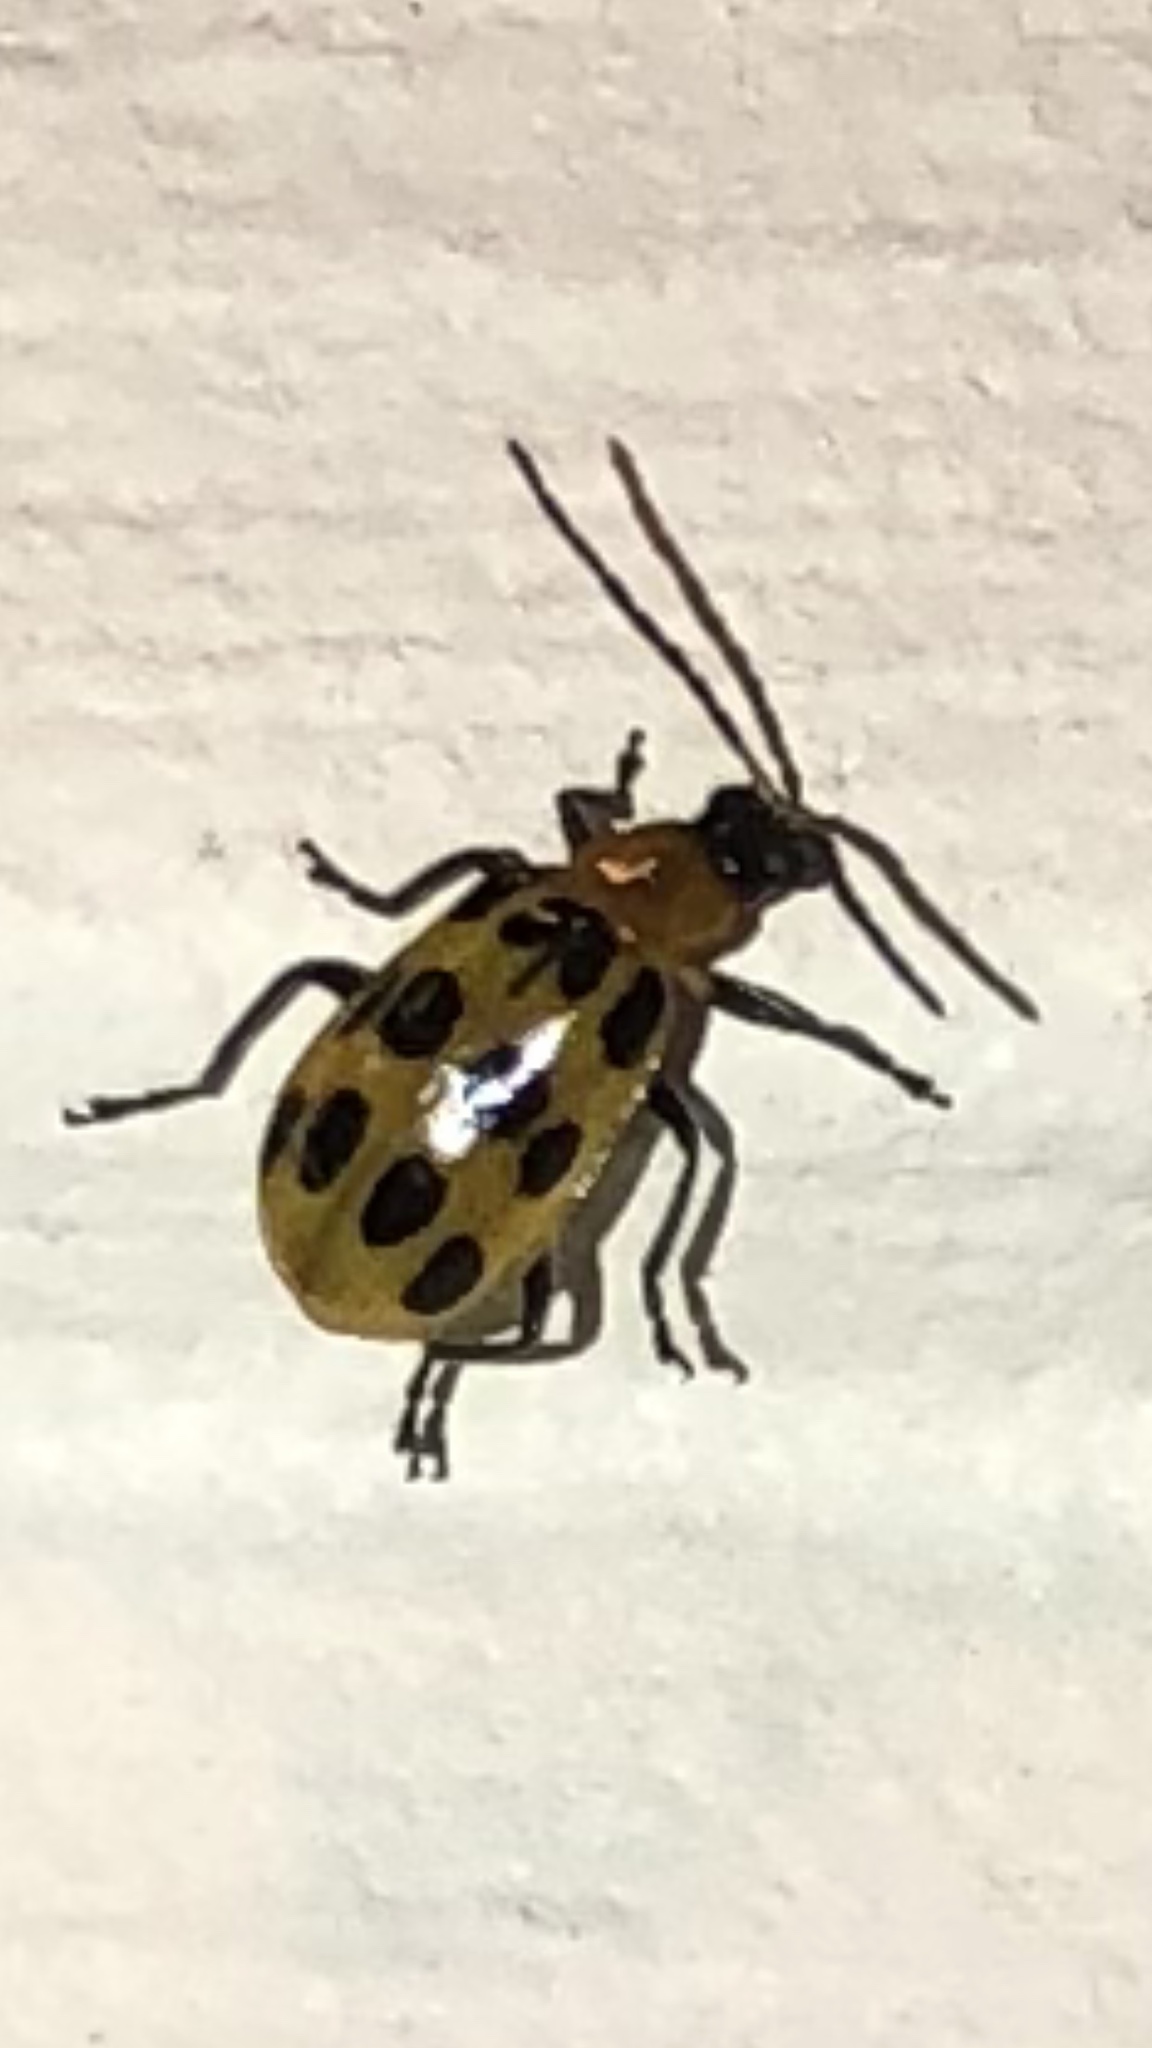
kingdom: Animalia
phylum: Arthropoda
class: Insecta
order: Coleoptera
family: Chrysomelidae
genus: Diabrotica
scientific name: Diabrotica undecimpunctata
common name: Spotted cucumber beetle
